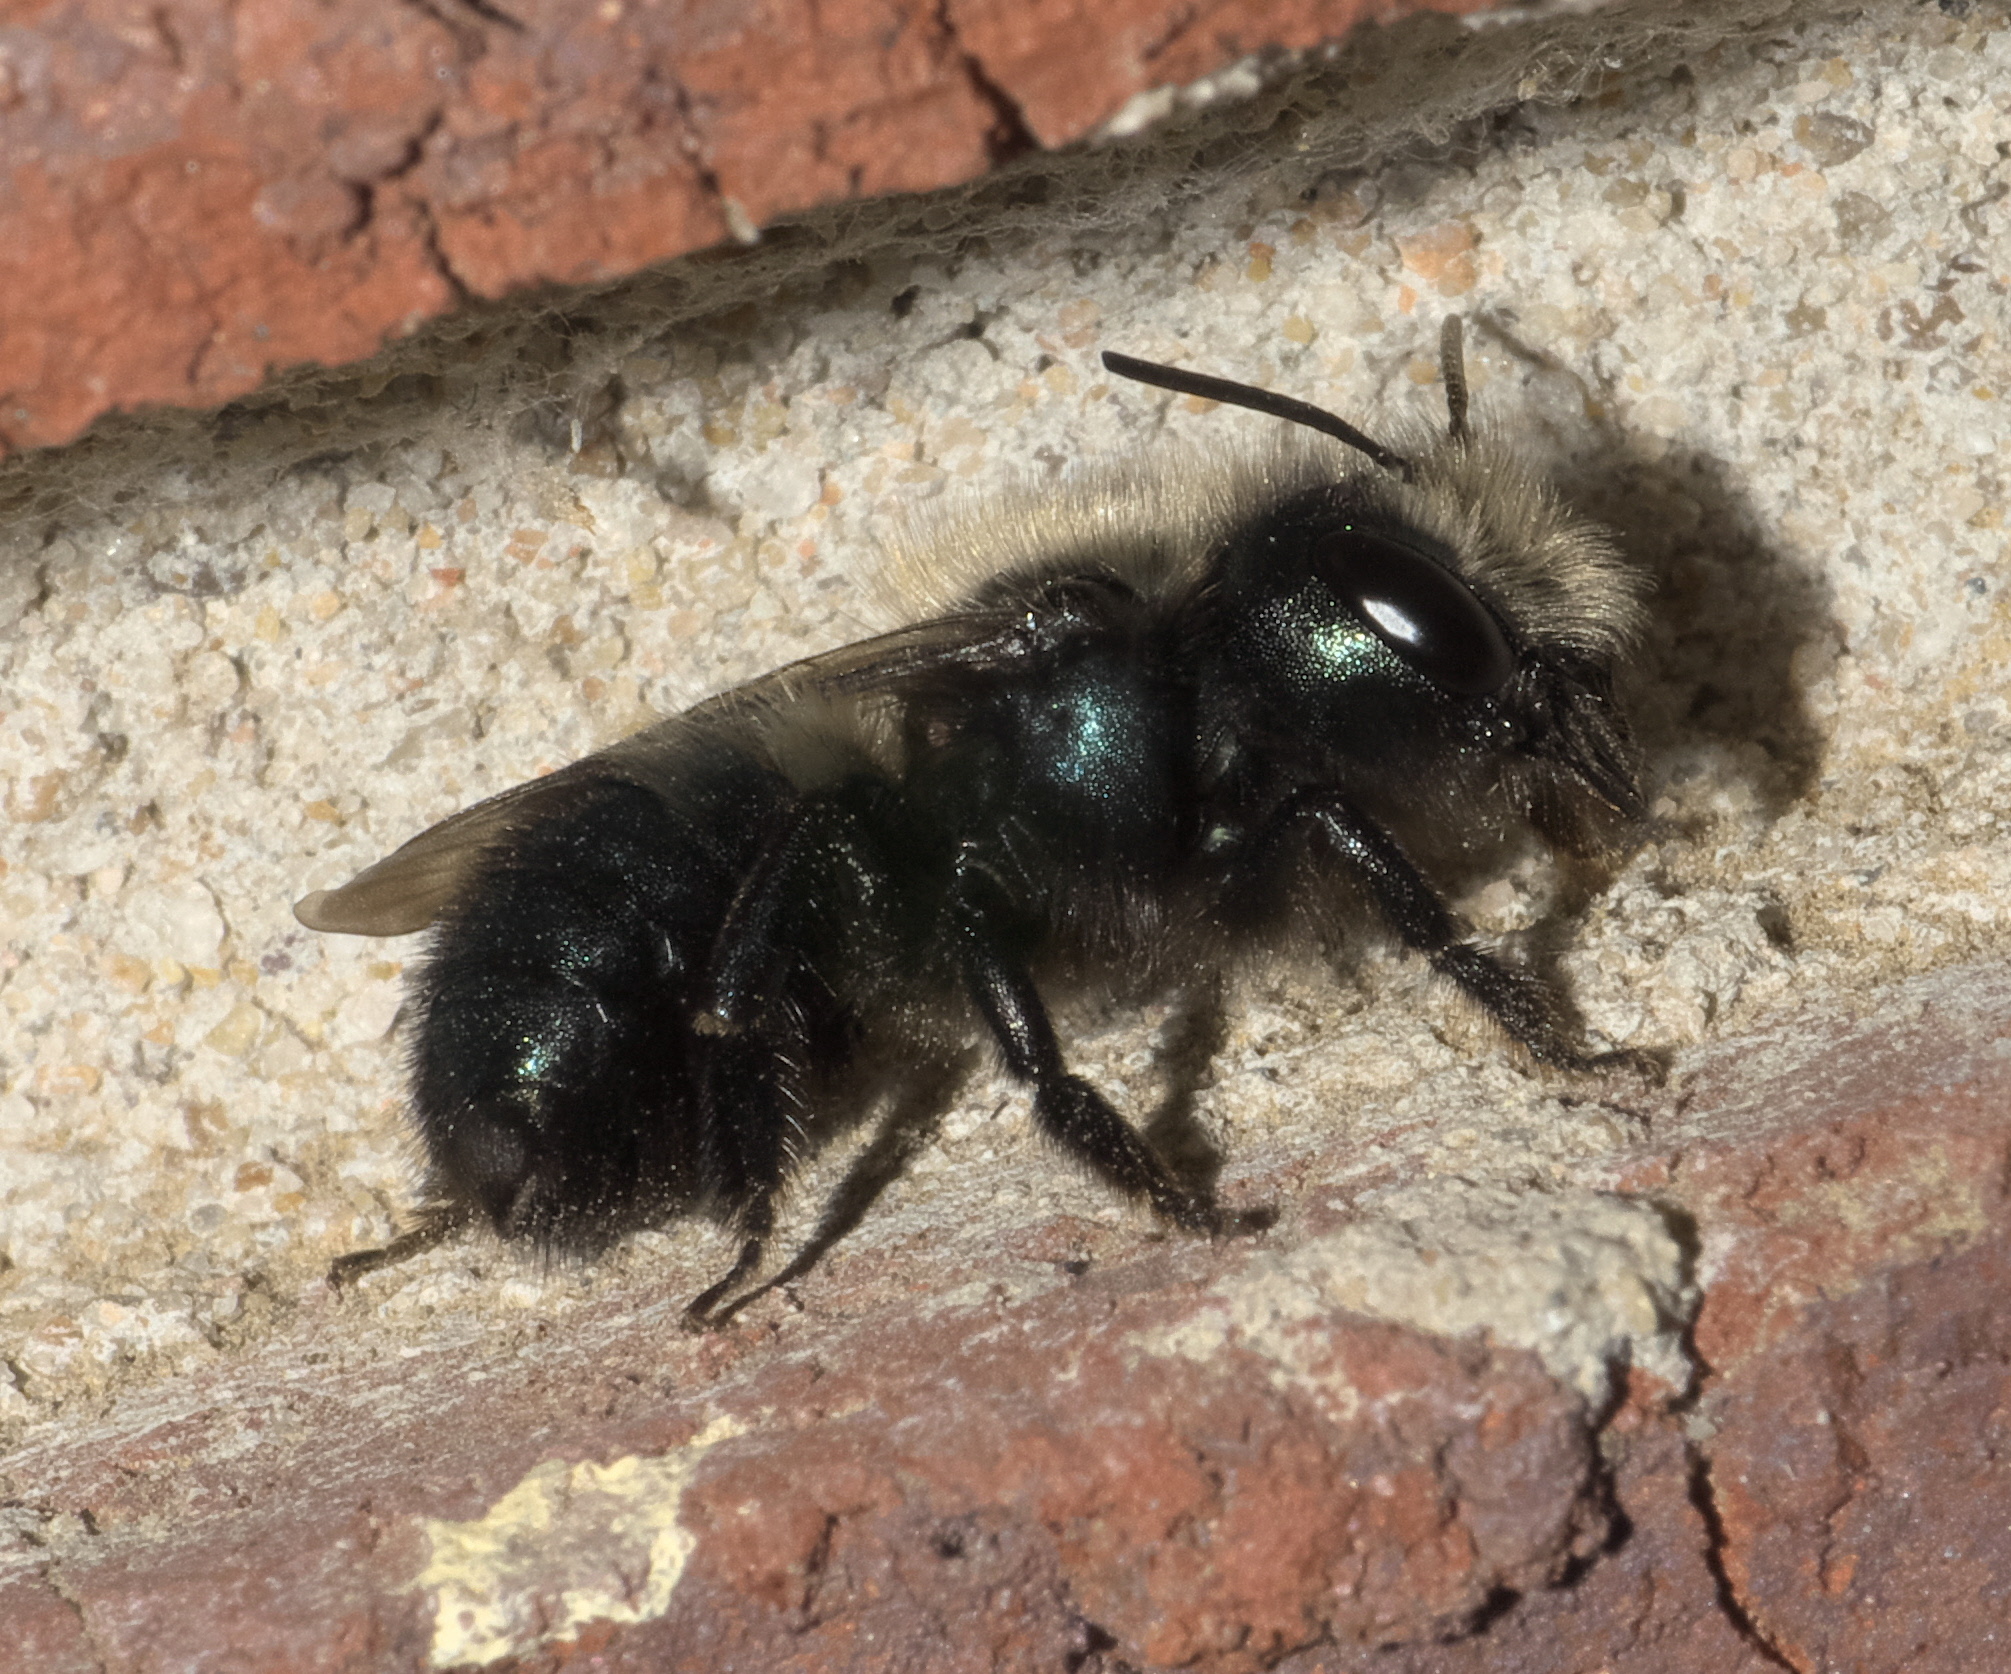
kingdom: Animalia
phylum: Arthropoda
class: Insecta
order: Hymenoptera
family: Megachilidae
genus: Osmia
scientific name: Osmia lignaria
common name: Blue orchard bee
